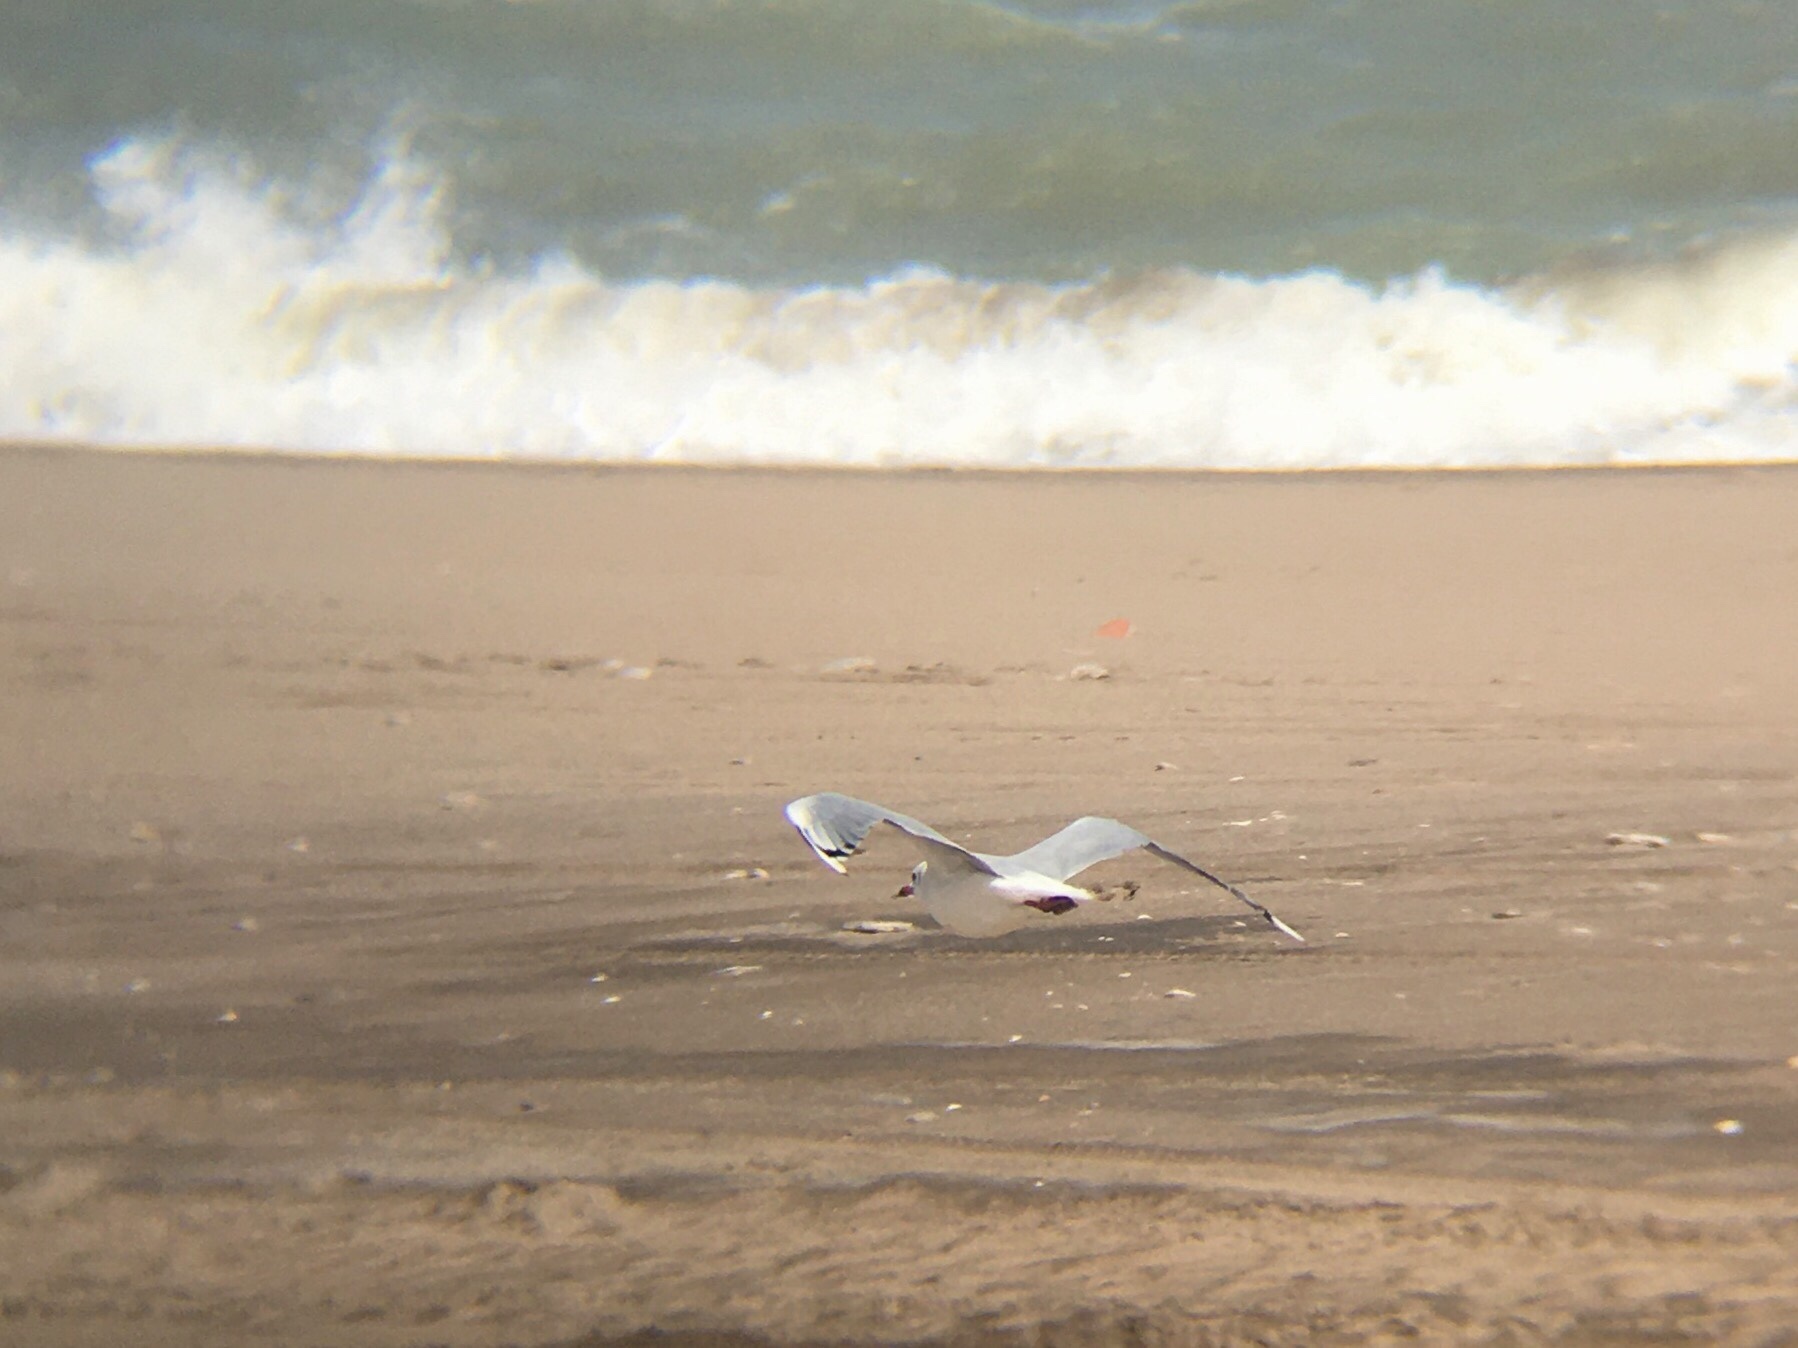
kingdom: Animalia
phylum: Chordata
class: Aves
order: Charadriiformes
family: Laridae
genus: Chroicocephalus
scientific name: Chroicocephalus maculipennis
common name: Brown-hooded gull
